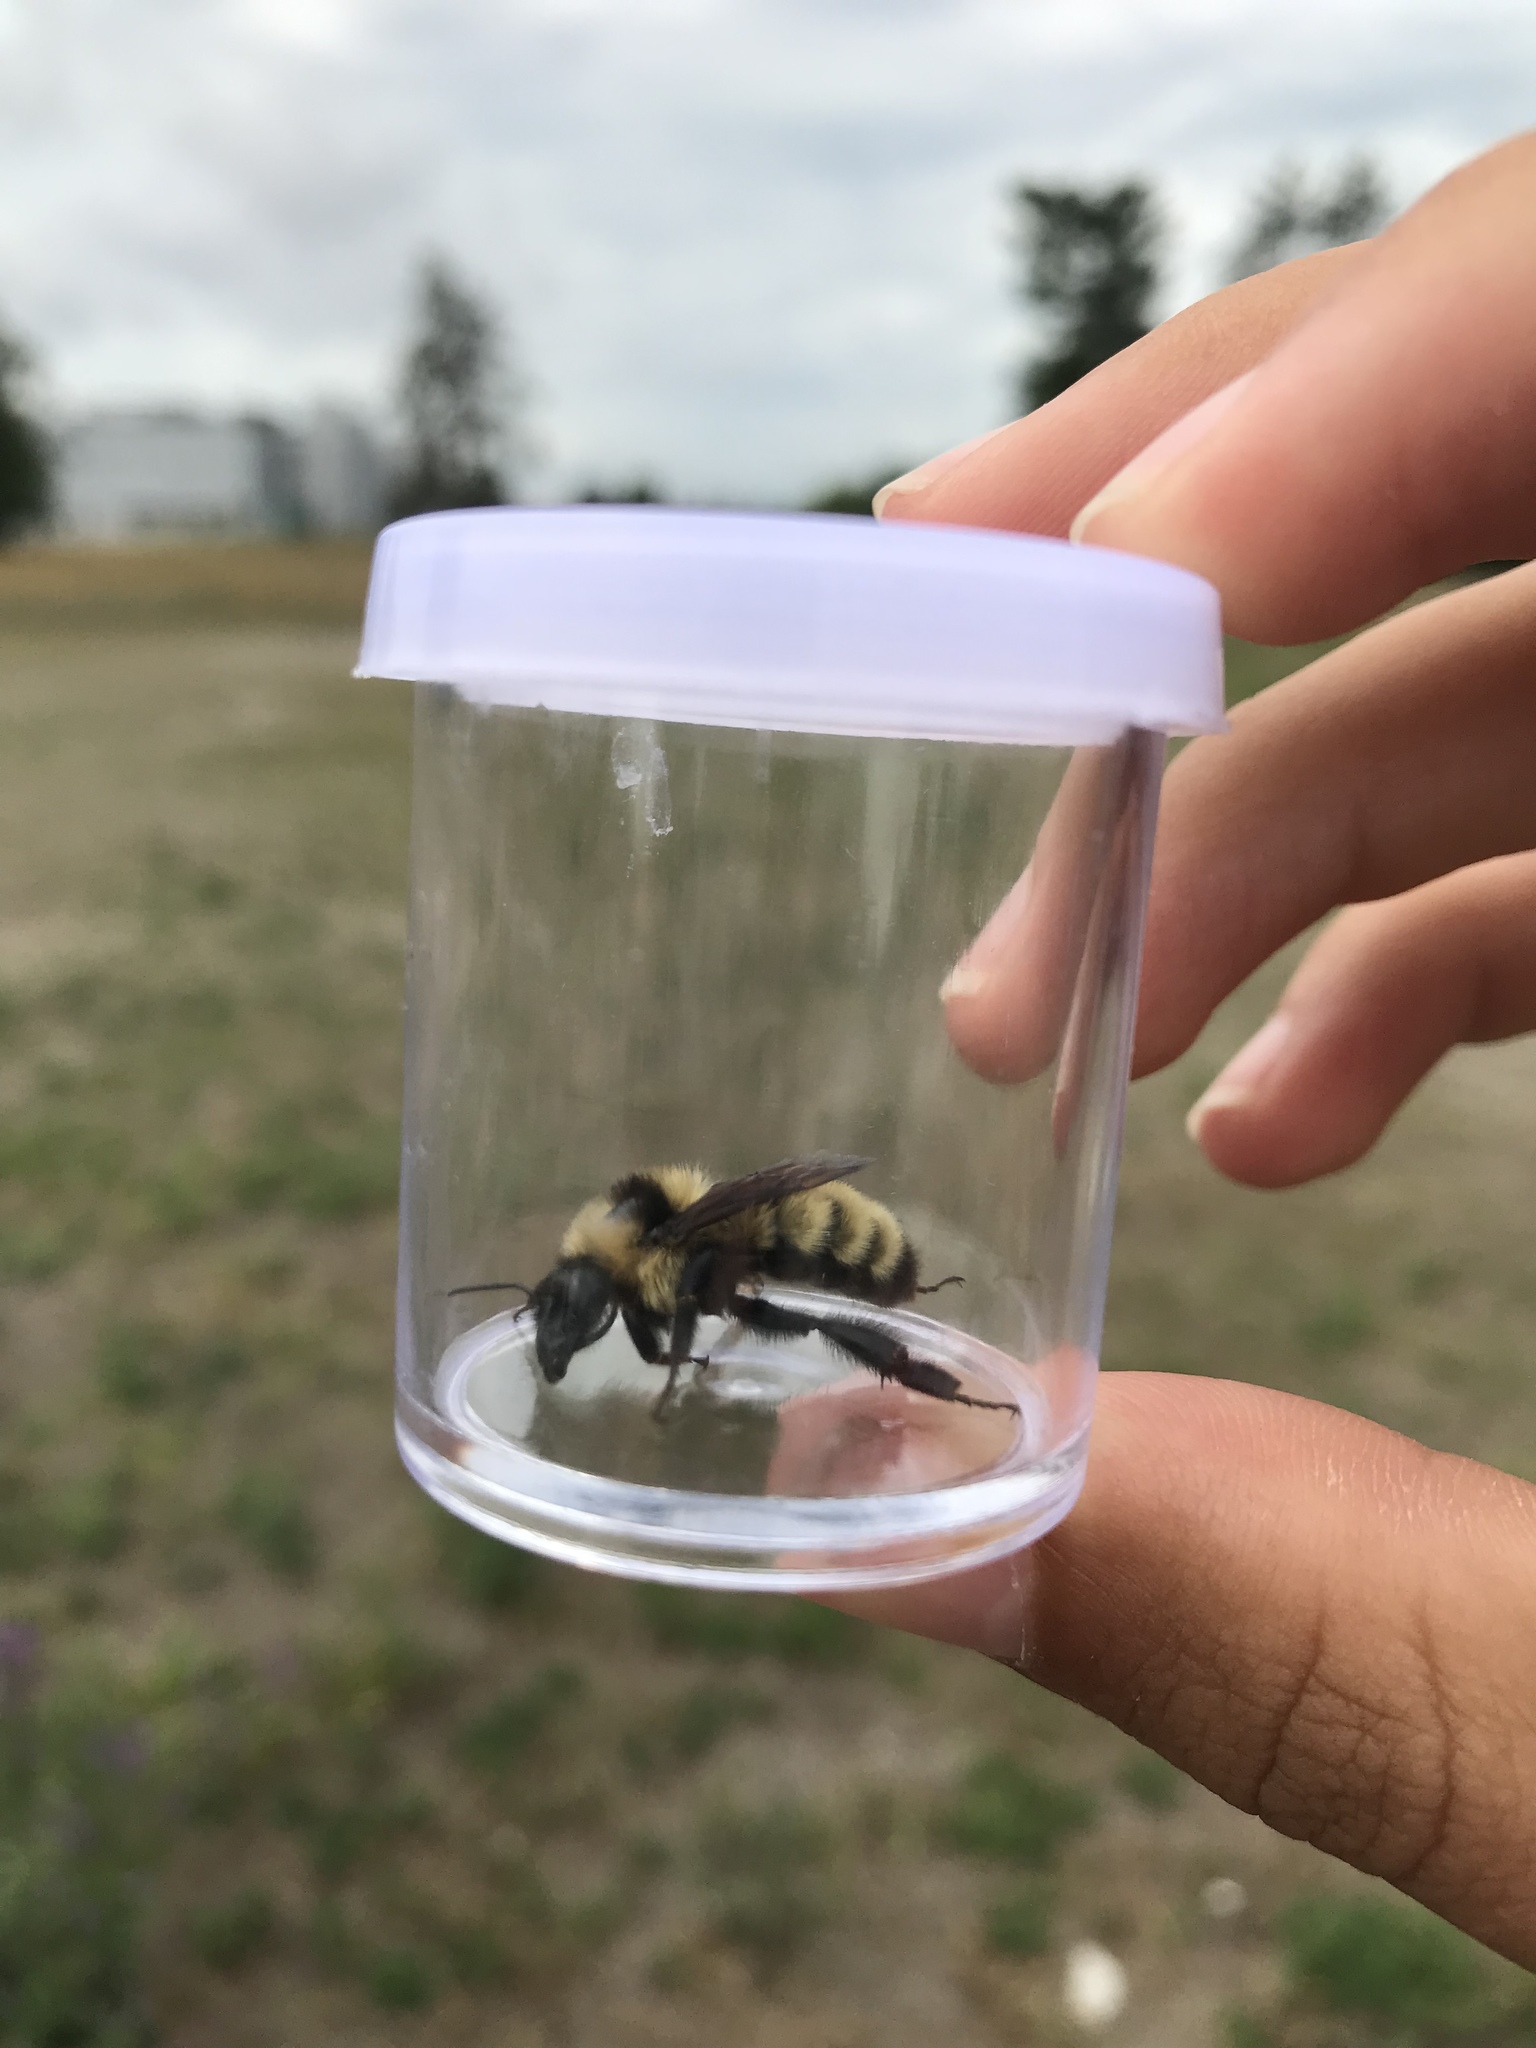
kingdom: Animalia
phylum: Arthropoda
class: Insecta
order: Hymenoptera
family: Apidae
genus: Bombus
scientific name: Bombus pensylvanicus
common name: Bumble bee
